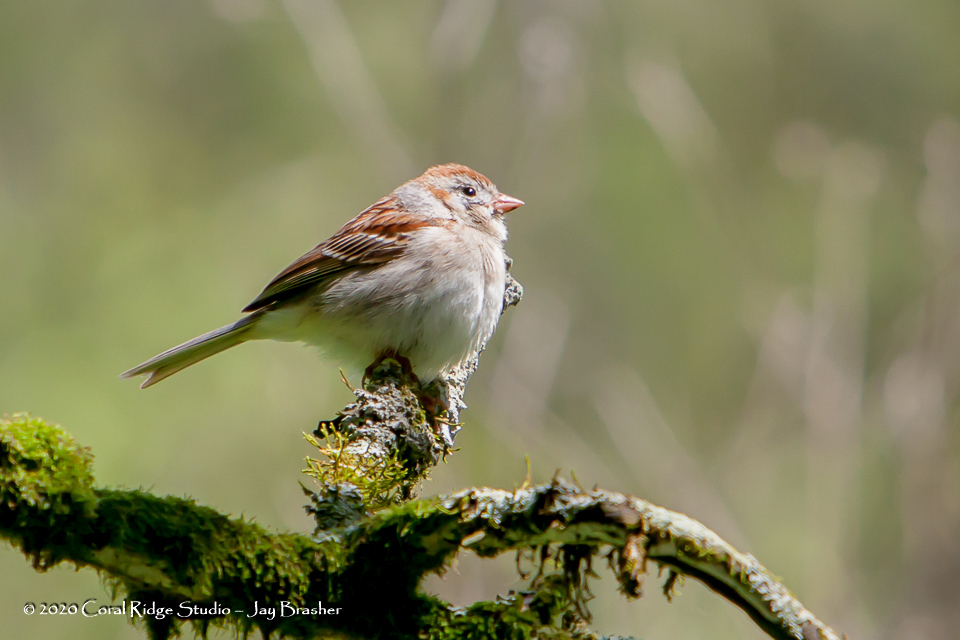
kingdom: Animalia
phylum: Chordata
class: Aves
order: Passeriformes
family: Passerellidae
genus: Spizella
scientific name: Spizella pusilla
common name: Field sparrow
